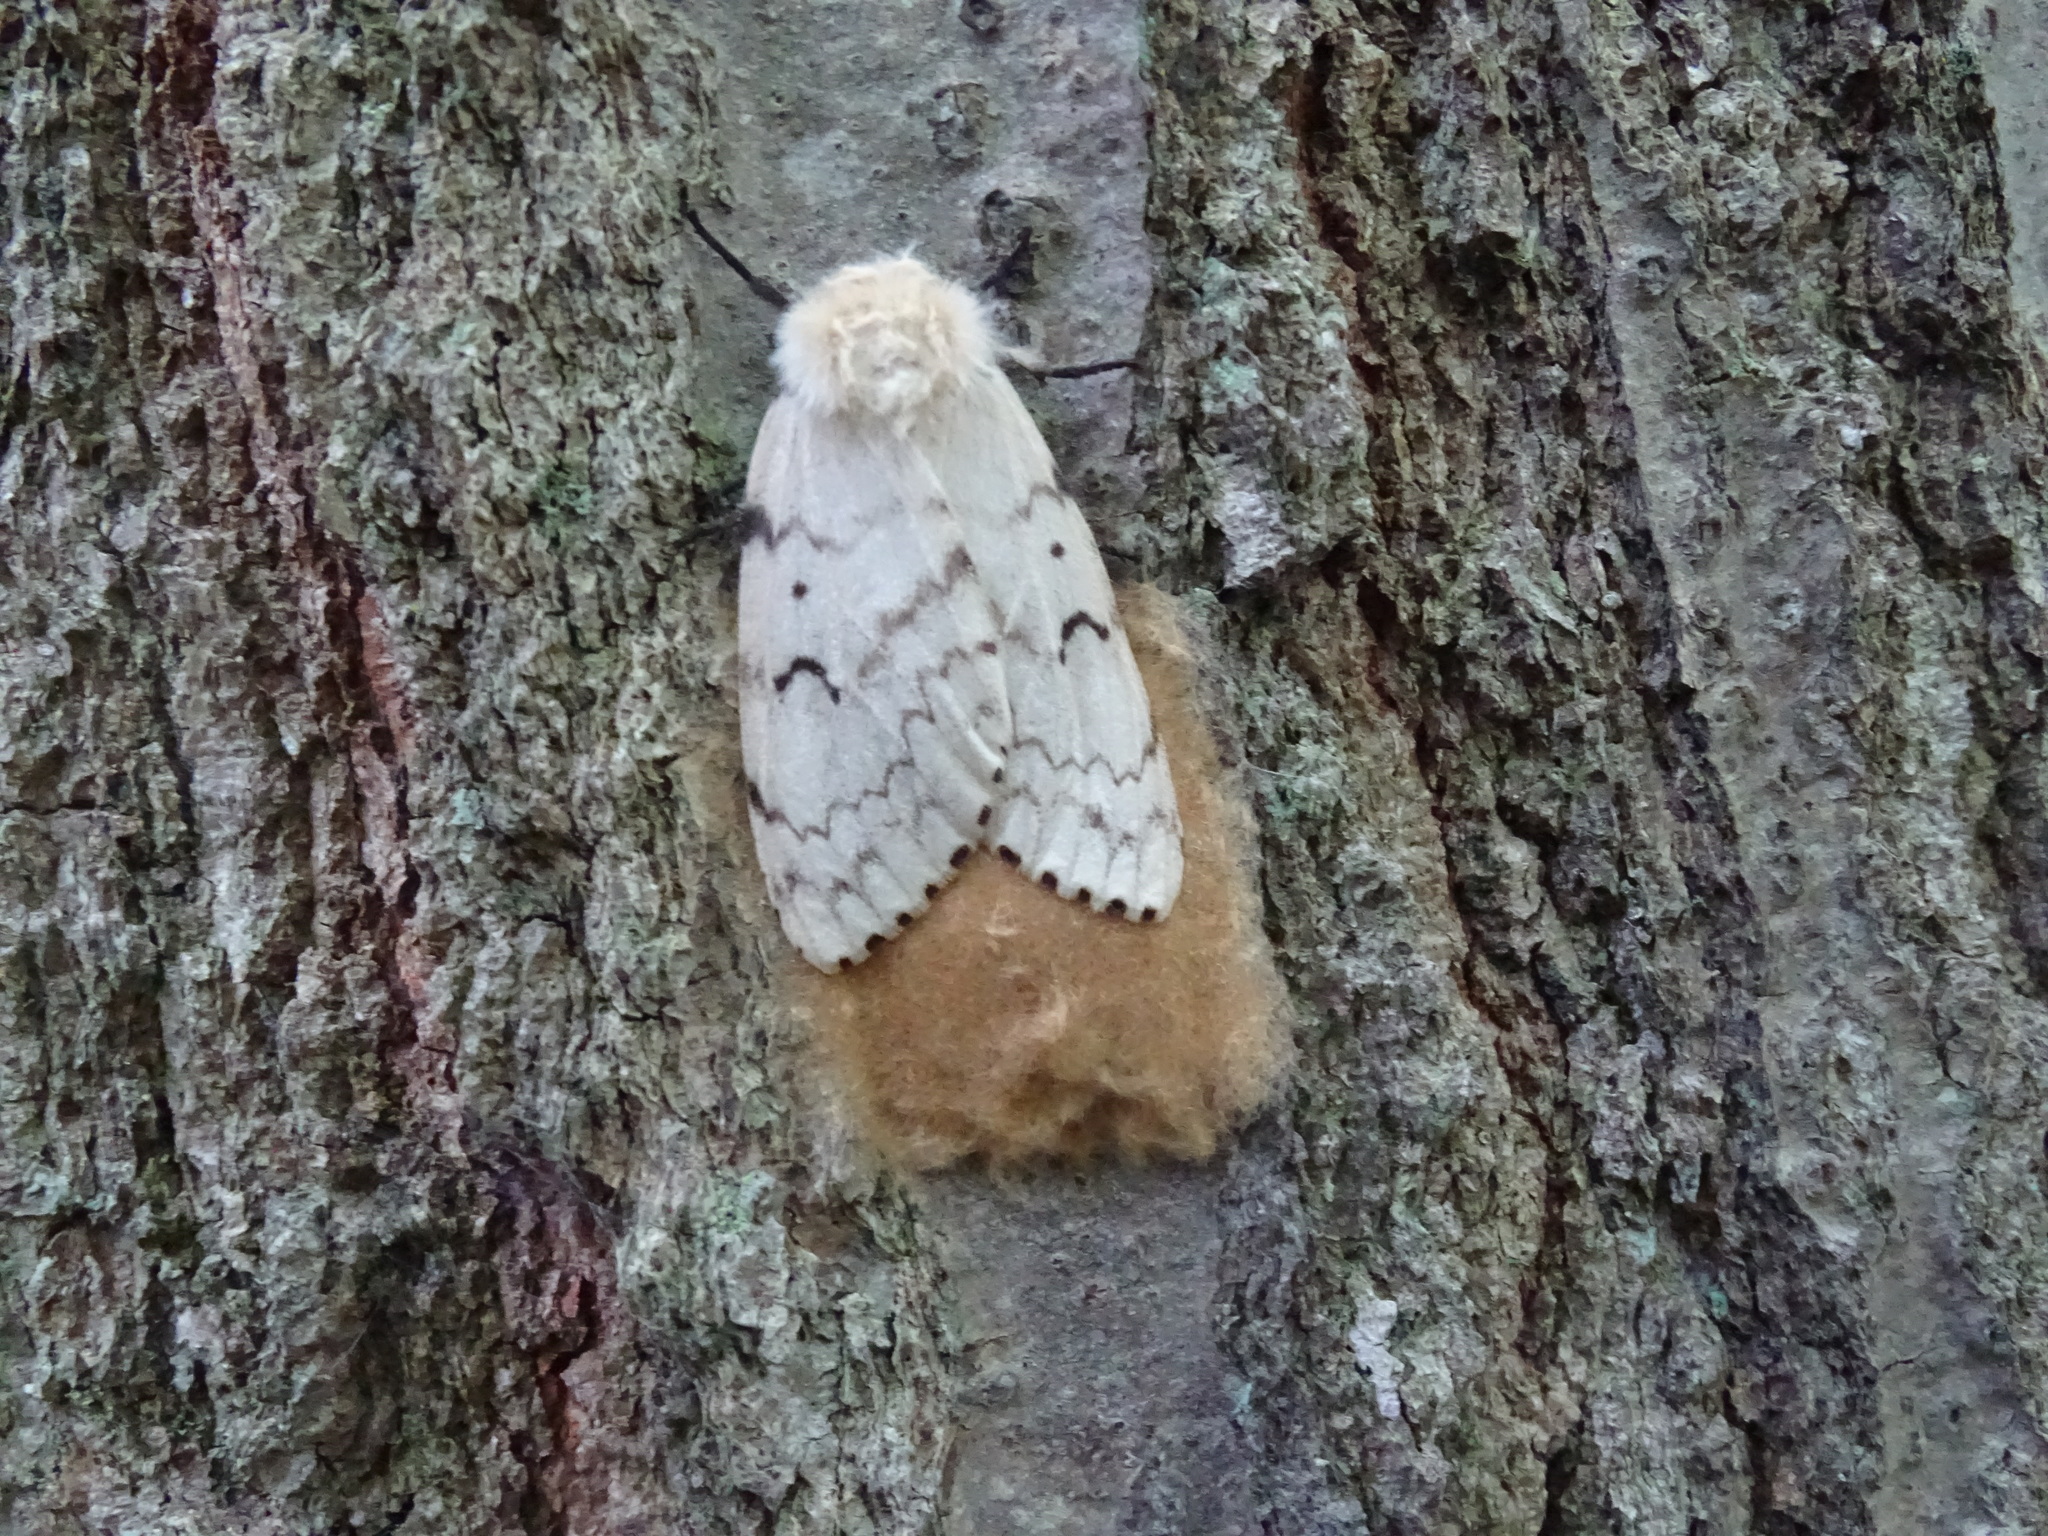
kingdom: Animalia
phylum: Arthropoda
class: Insecta
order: Lepidoptera
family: Erebidae
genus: Lymantria
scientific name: Lymantria dispar
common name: Gypsy moth
